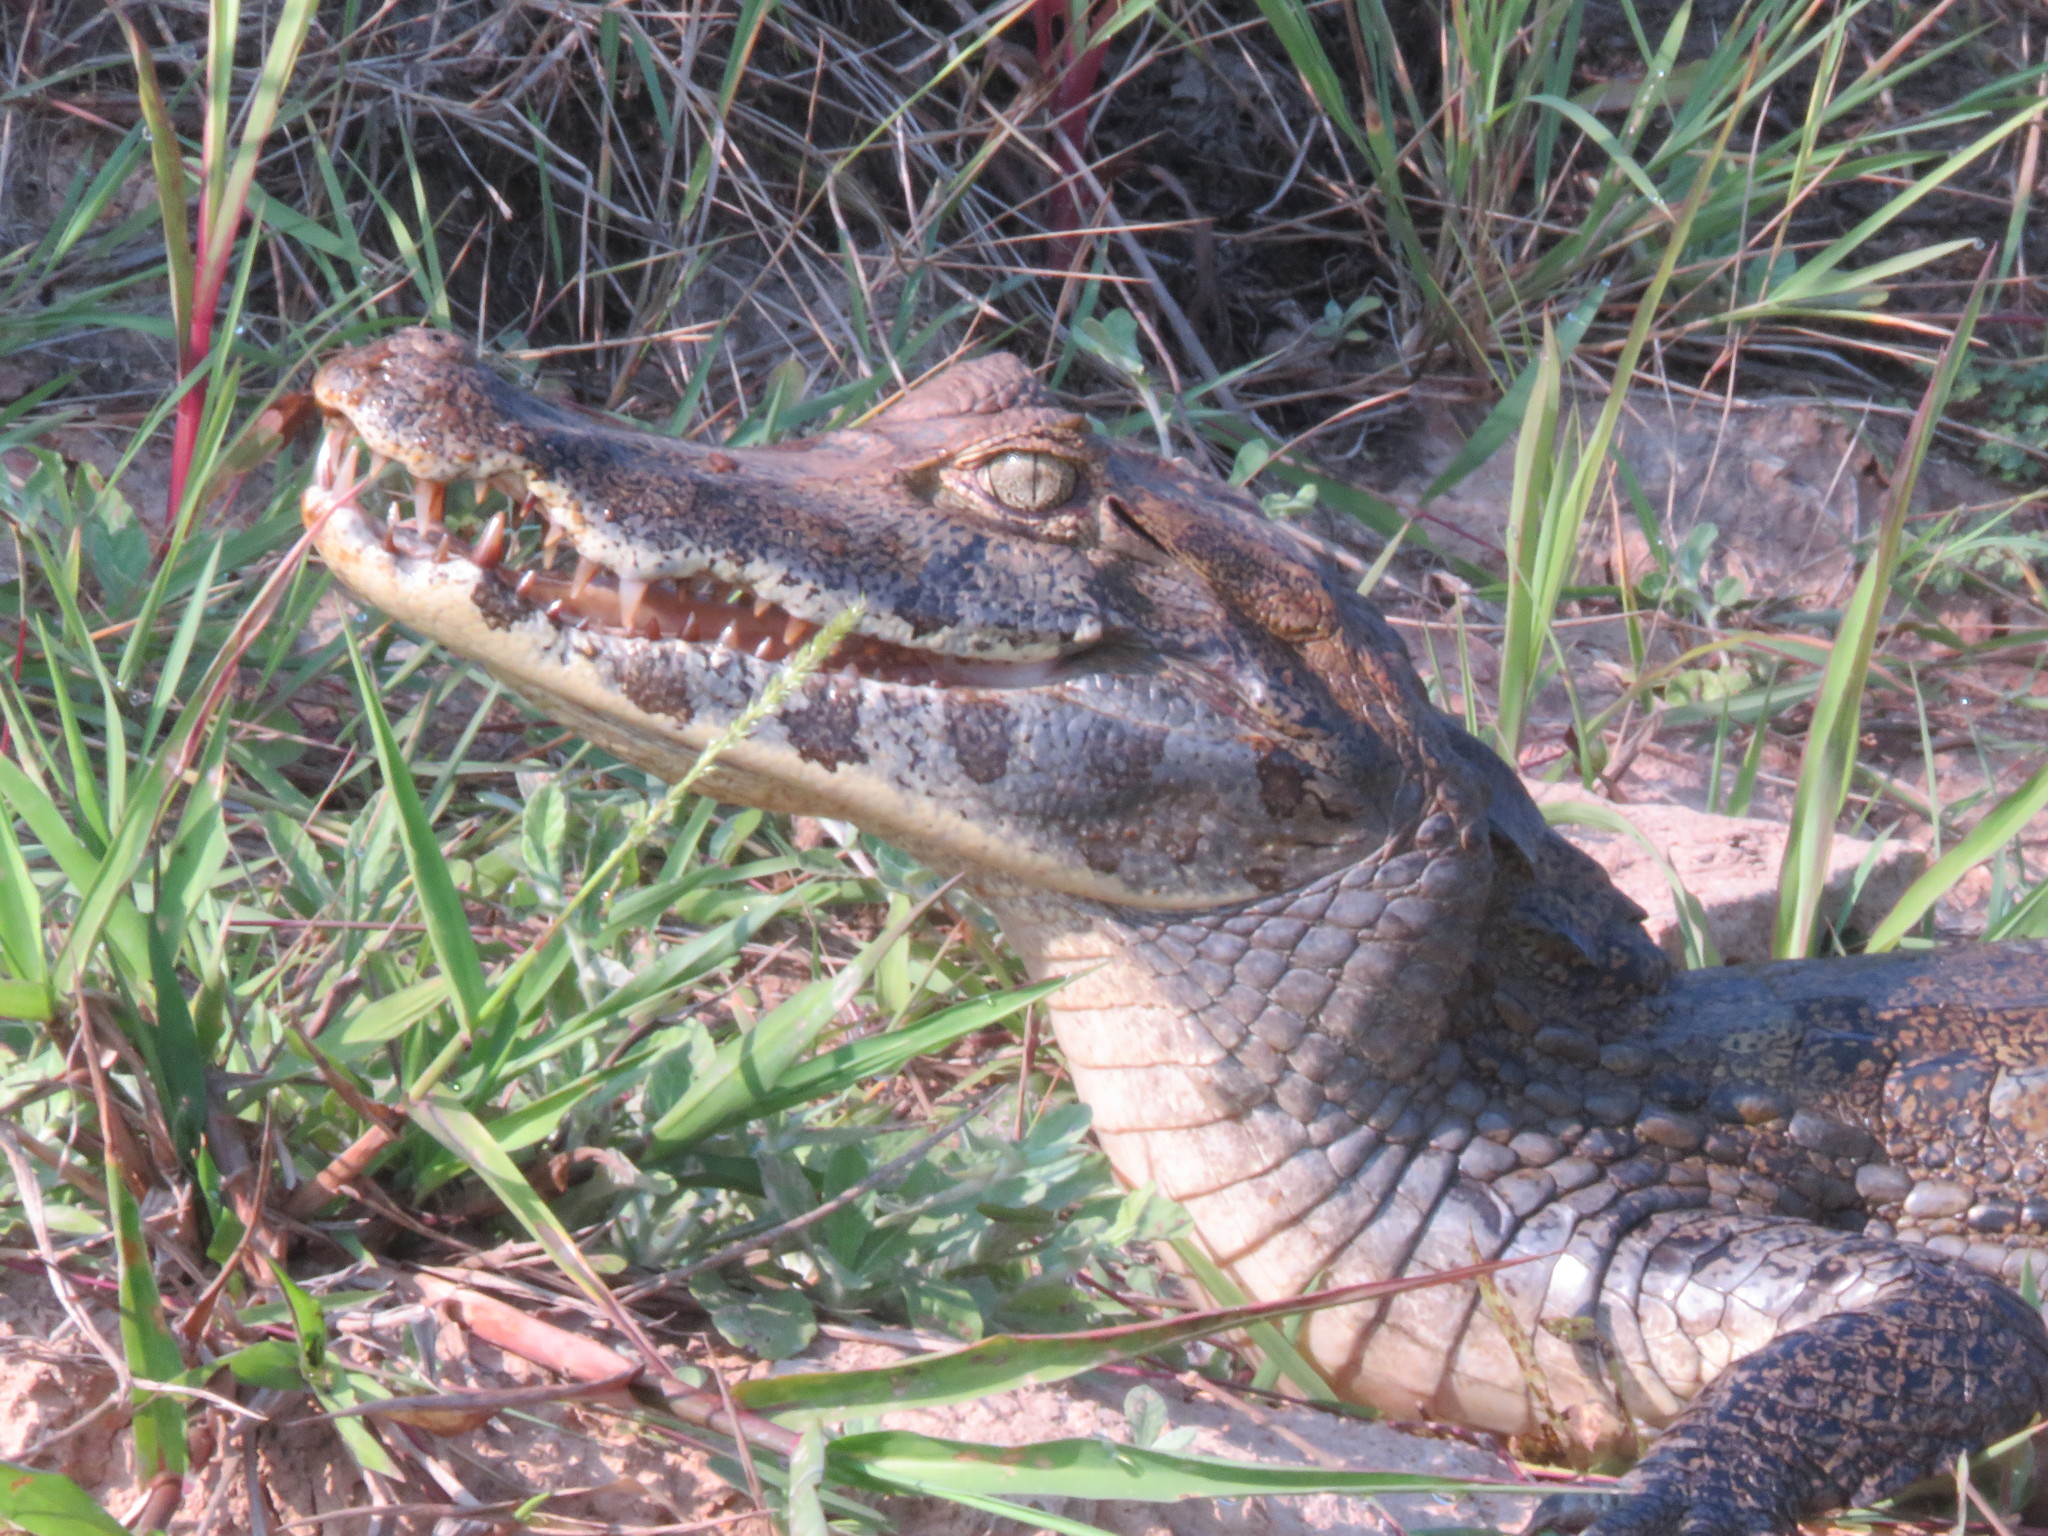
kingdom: Animalia
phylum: Chordata
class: Crocodylia
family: Alligatoridae
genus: Caiman
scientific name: Caiman yacare
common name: Yacare caiman
